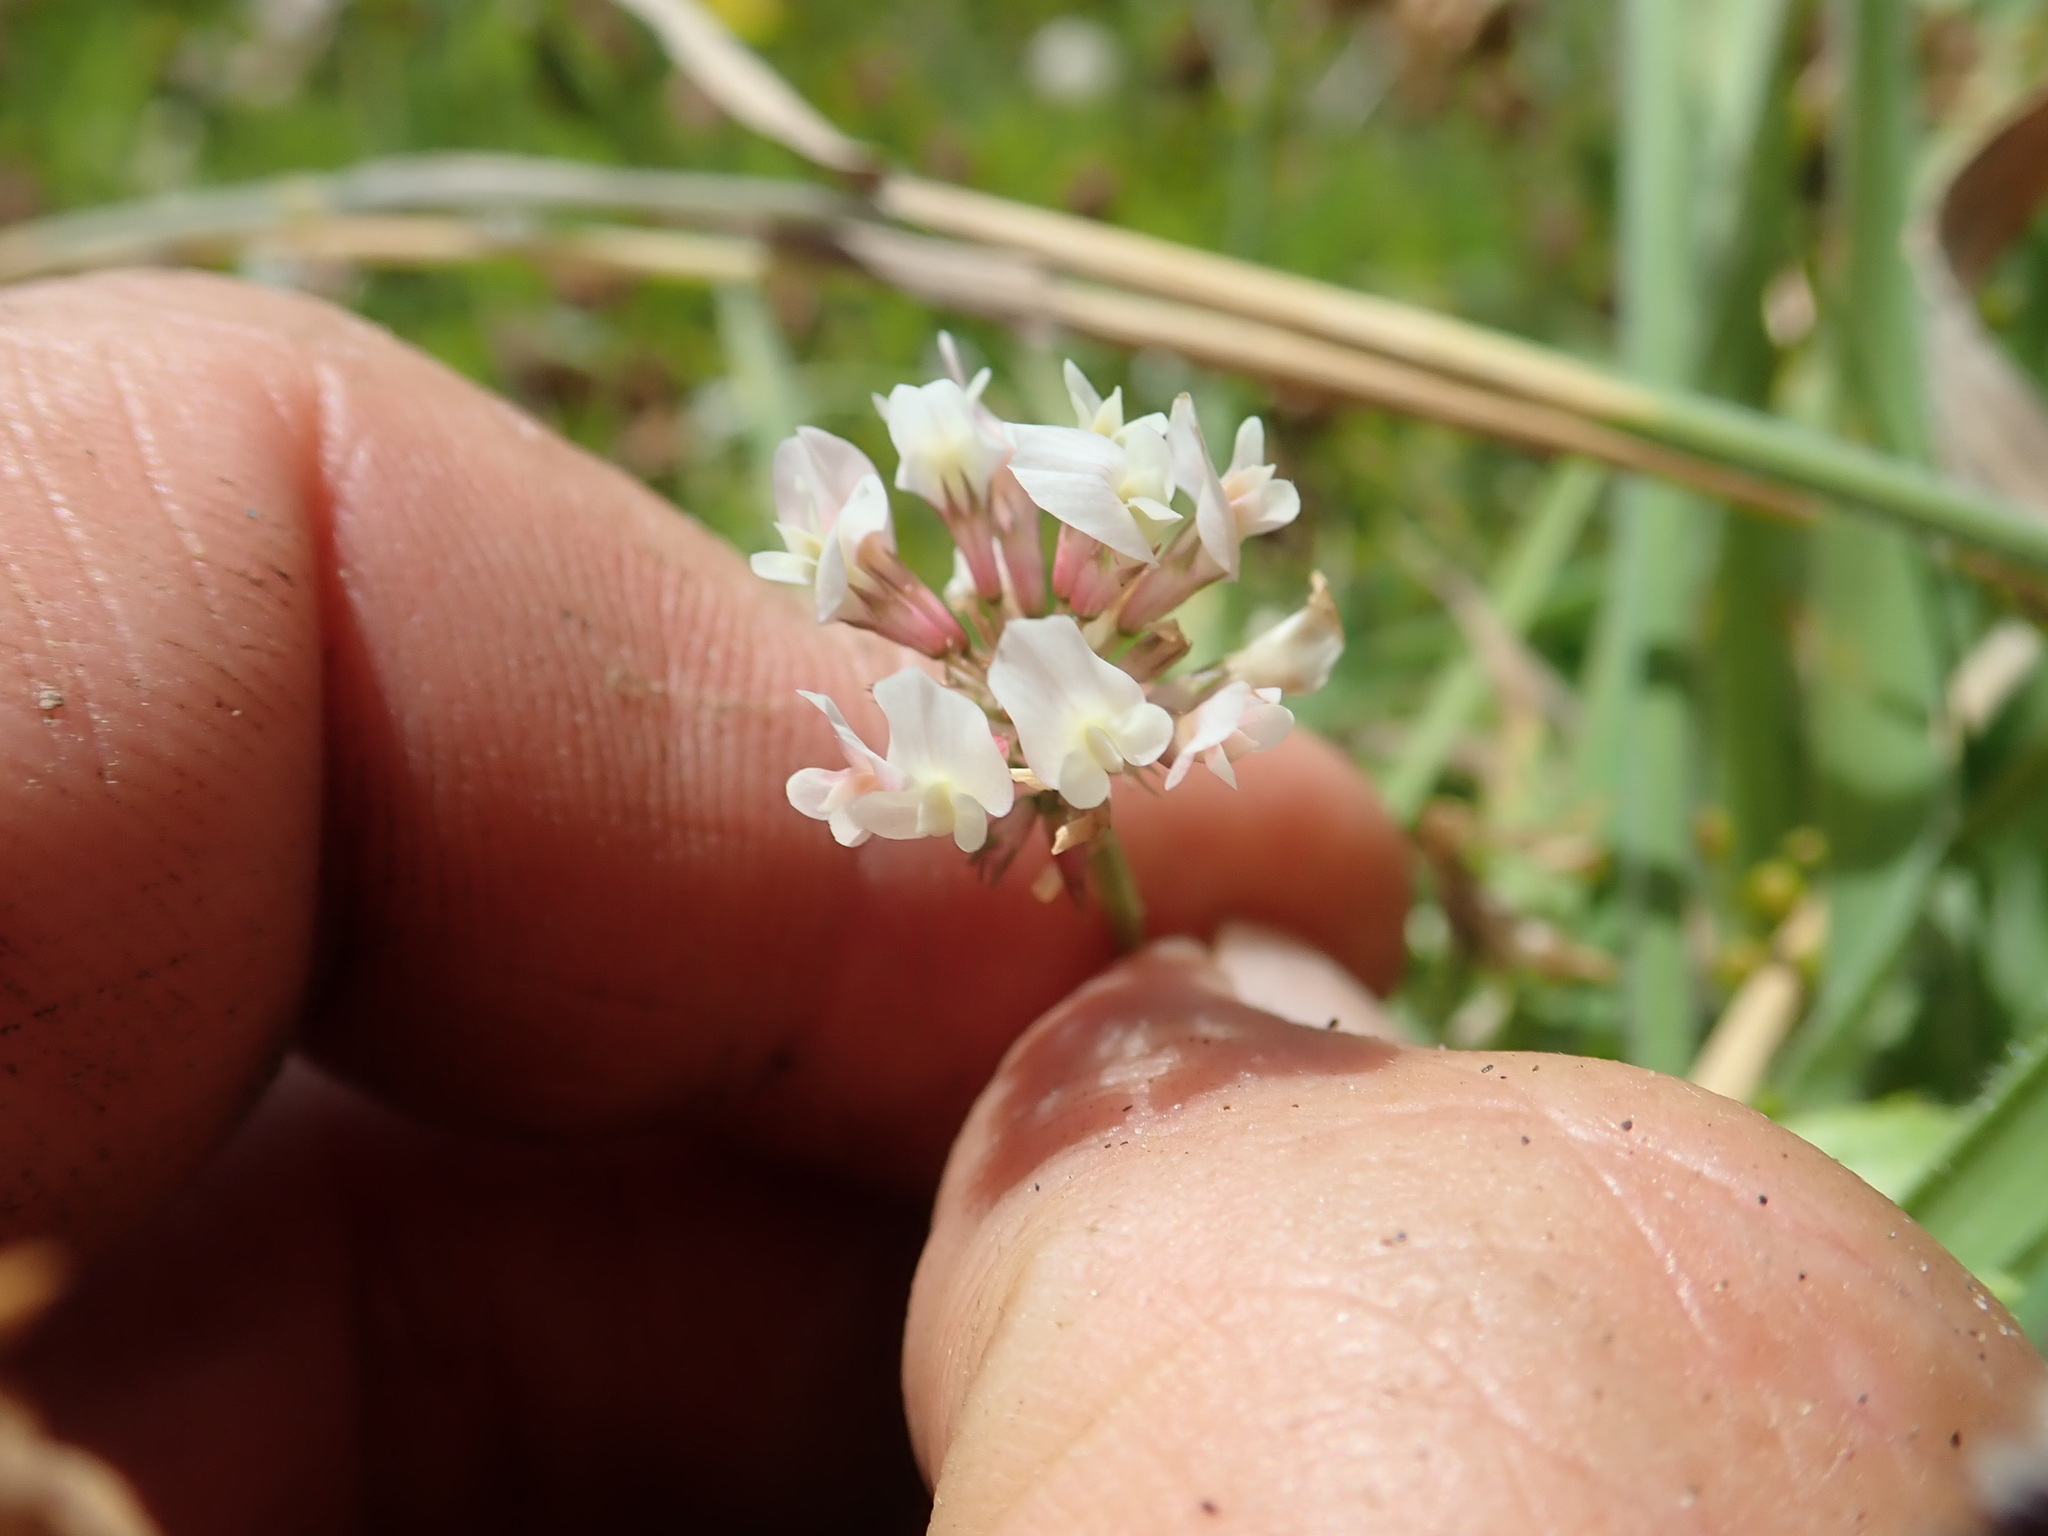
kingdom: Plantae
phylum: Tracheophyta
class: Magnoliopsida
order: Fabales
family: Fabaceae
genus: Trifolium
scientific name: Trifolium repens
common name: White clover
